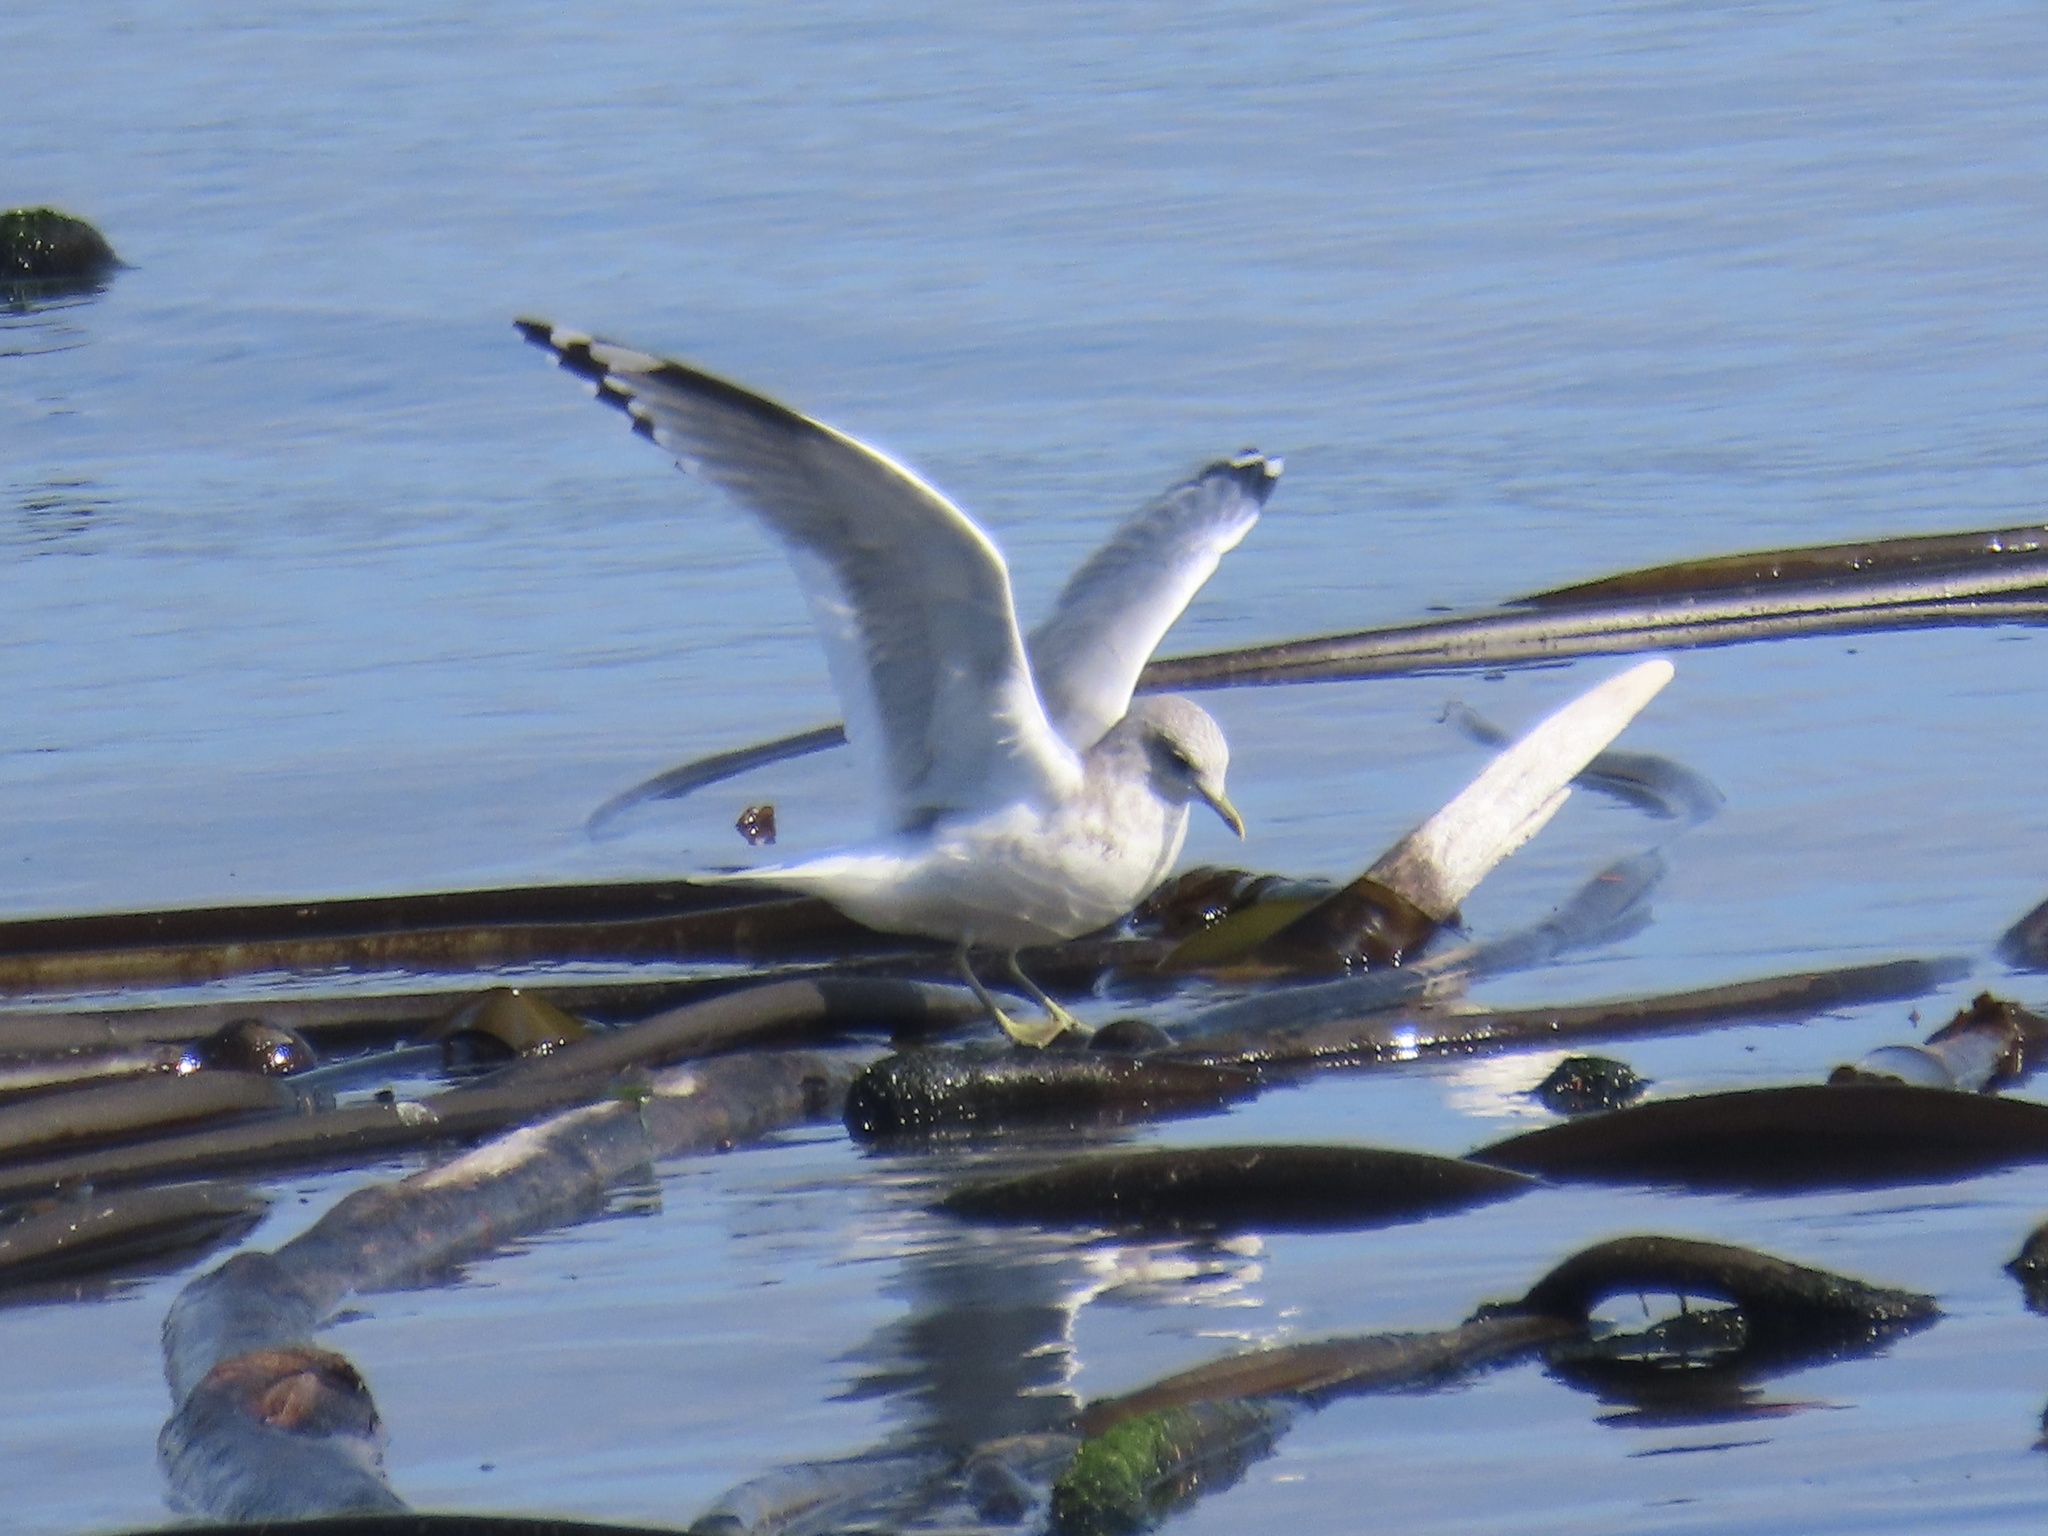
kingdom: Animalia
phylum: Chordata
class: Aves
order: Charadriiformes
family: Laridae
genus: Larus
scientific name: Larus brachyrhynchus
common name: Short-billed gull
